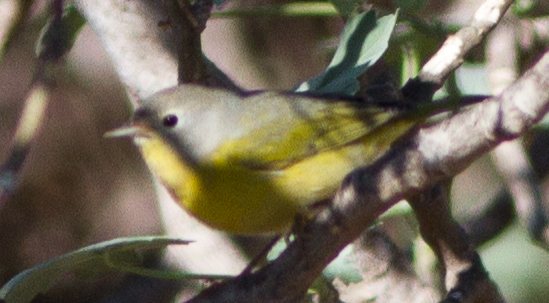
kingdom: Animalia
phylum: Chordata
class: Aves
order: Passeriformes
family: Parulidae
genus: Leiothlypis
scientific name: Leiothlypis ruficapilla
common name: Nashville warbler
